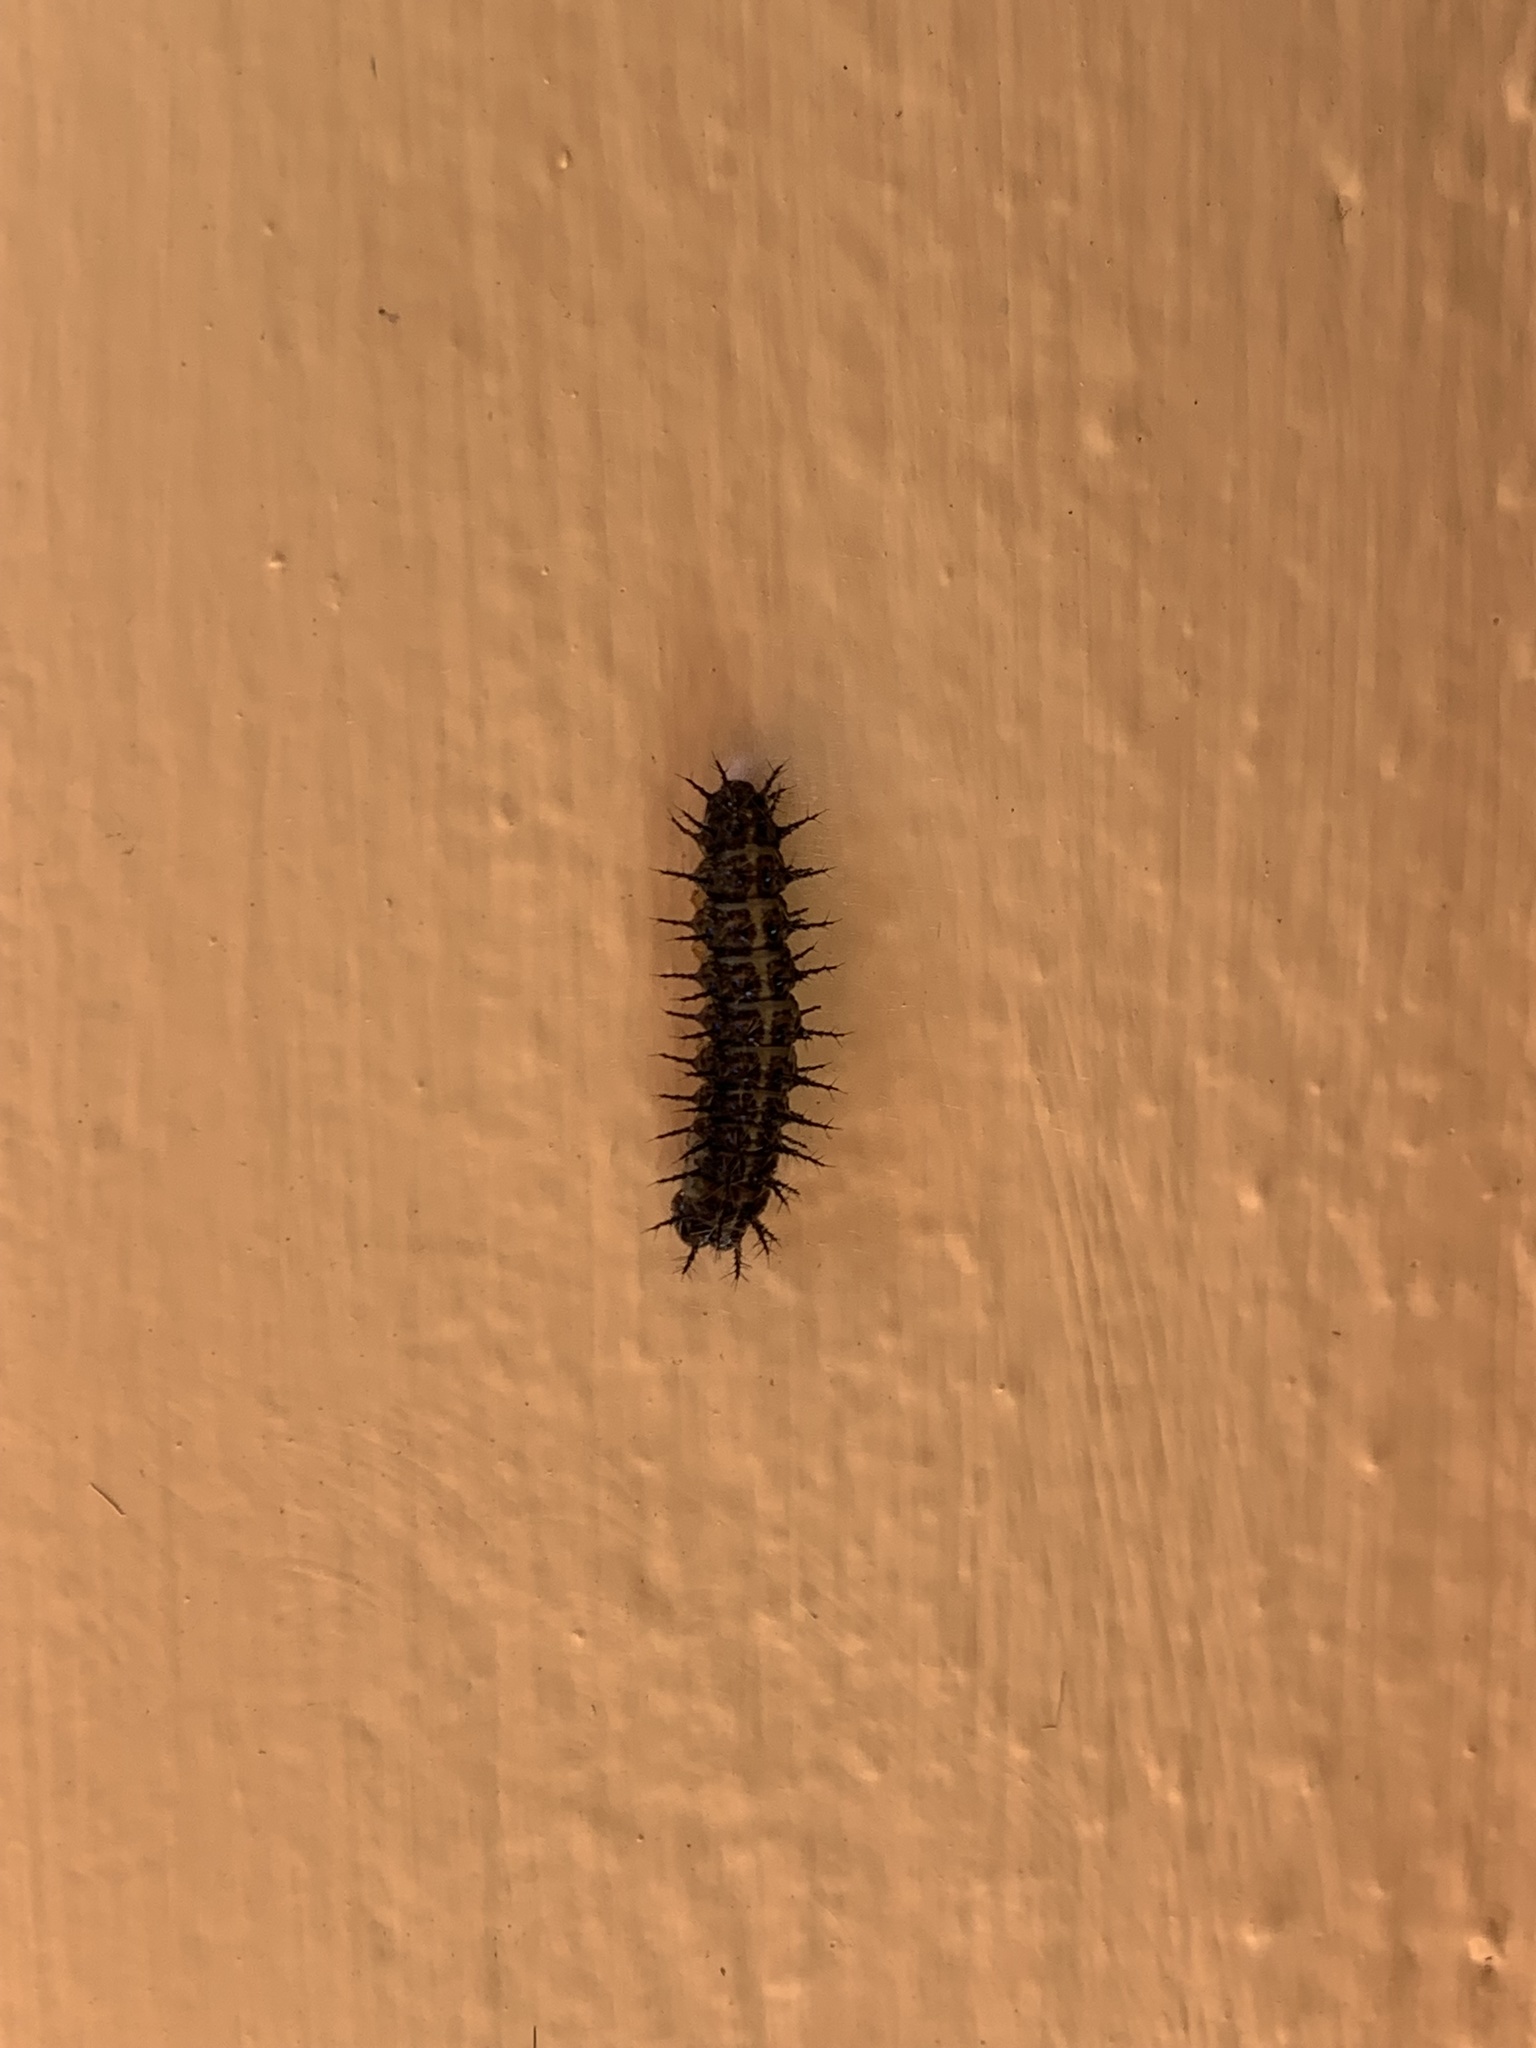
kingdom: Animalia
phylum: Arthropoda
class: Insecta
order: Lepidoptera
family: Nymphalidae
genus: Acraea
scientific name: Acraea horta
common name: Garden acraea
